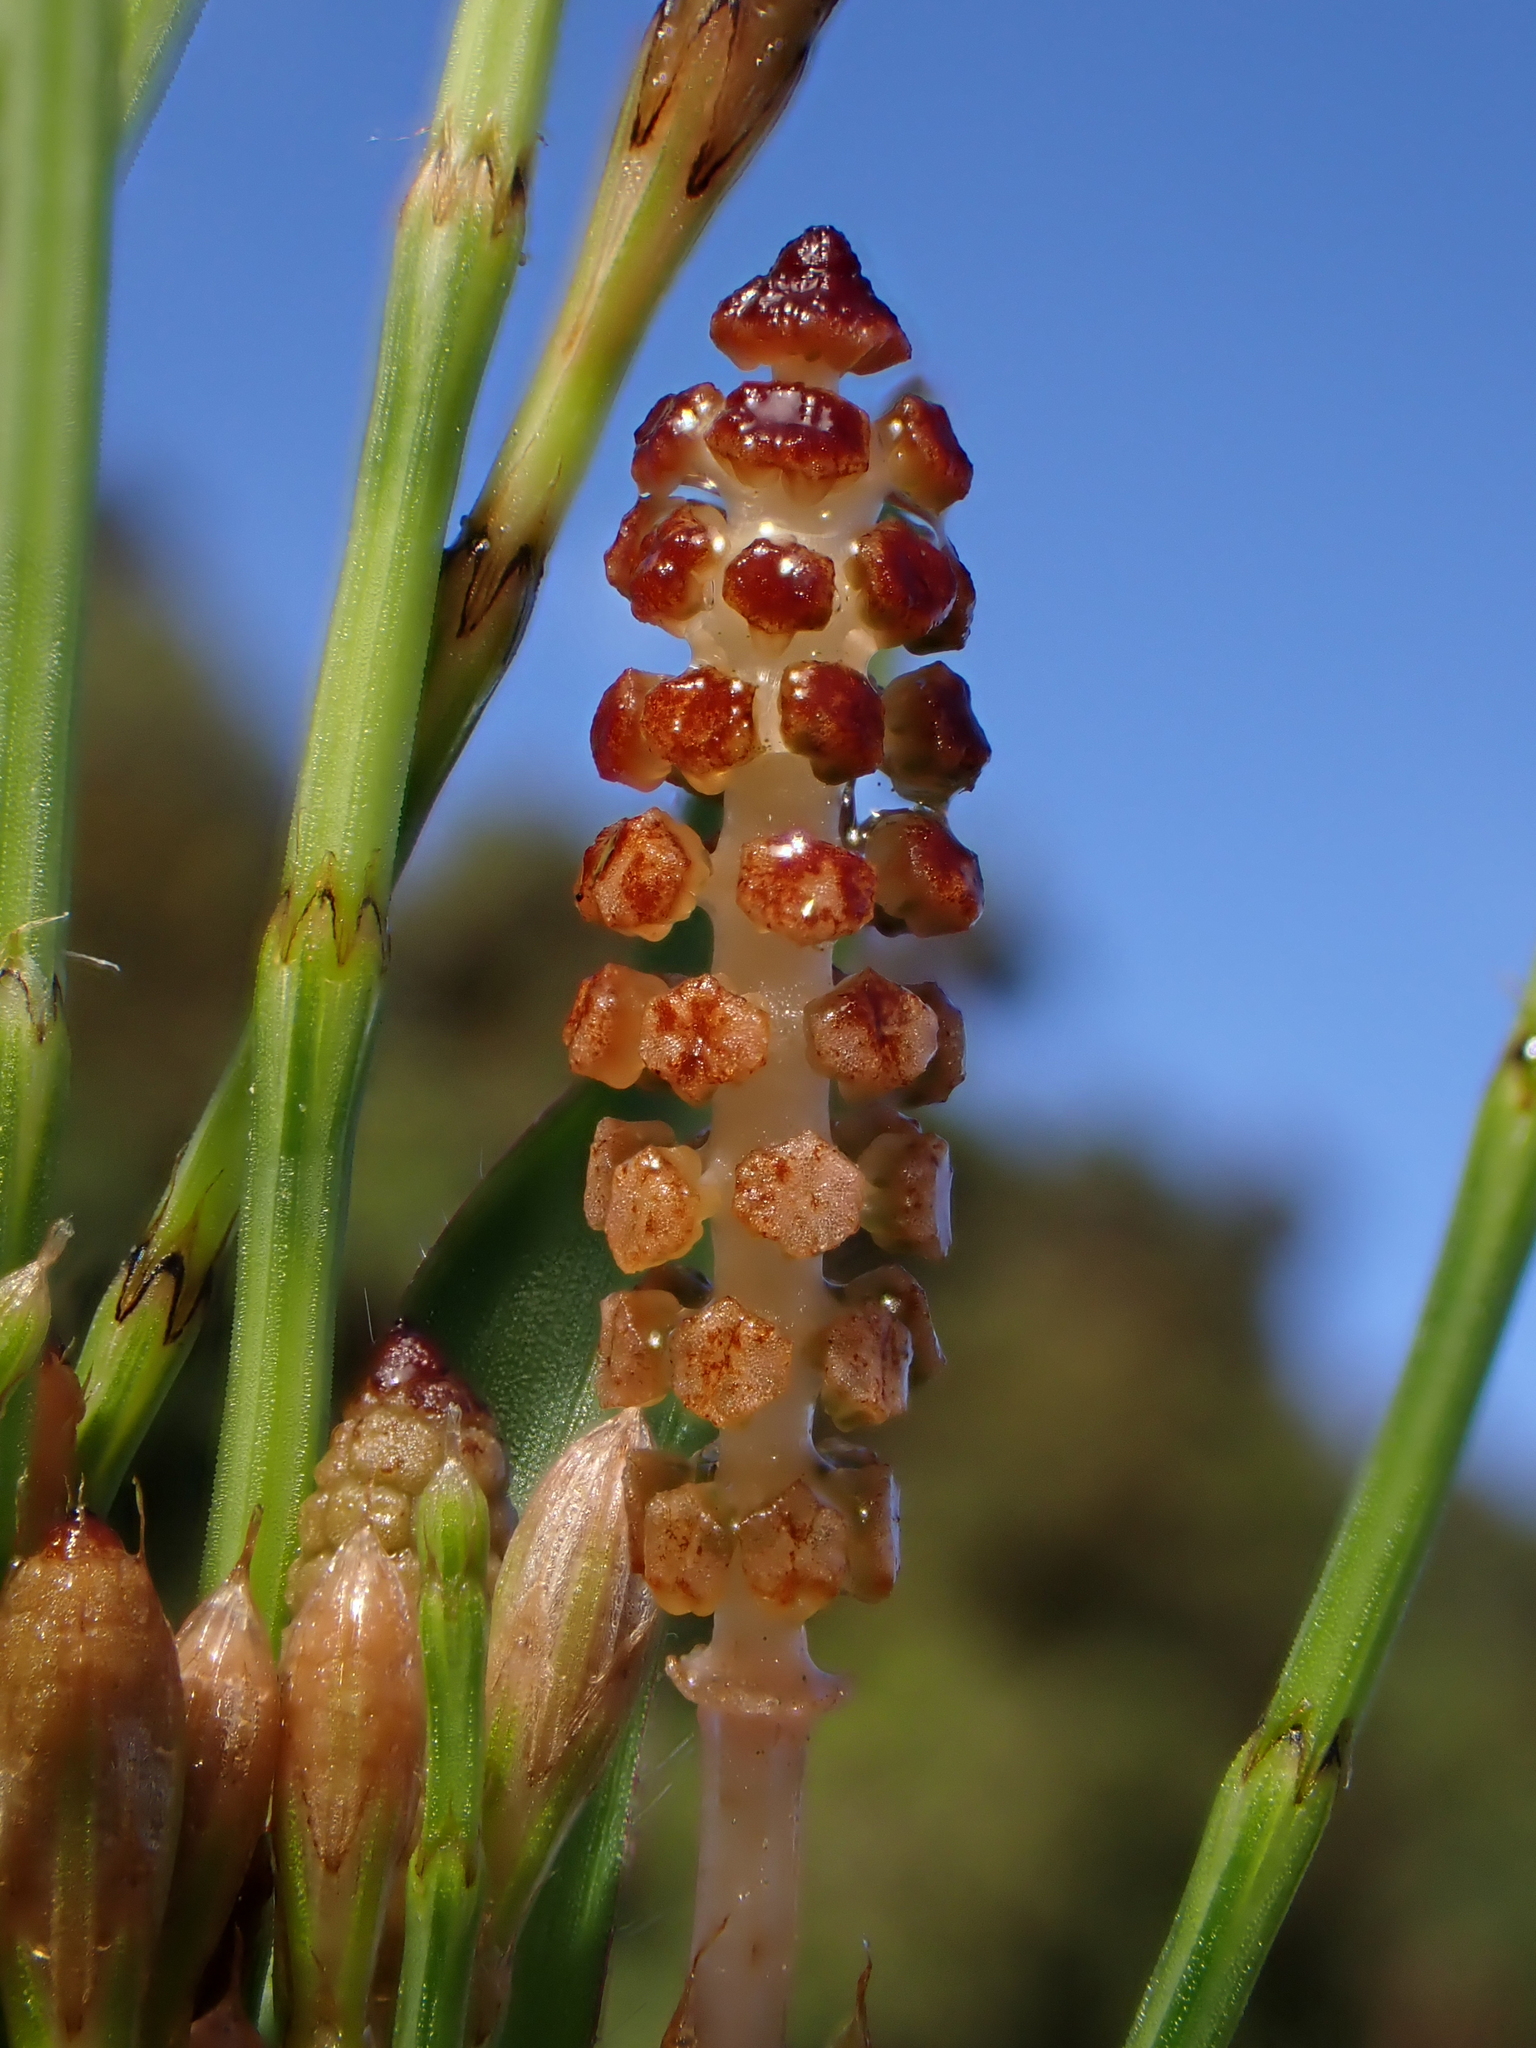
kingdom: Plantae
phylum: Tracheophyta
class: Polypodiopsida
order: Equisetales
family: Equisetaceae
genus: Equisetum
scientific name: Equisetum bogotense
